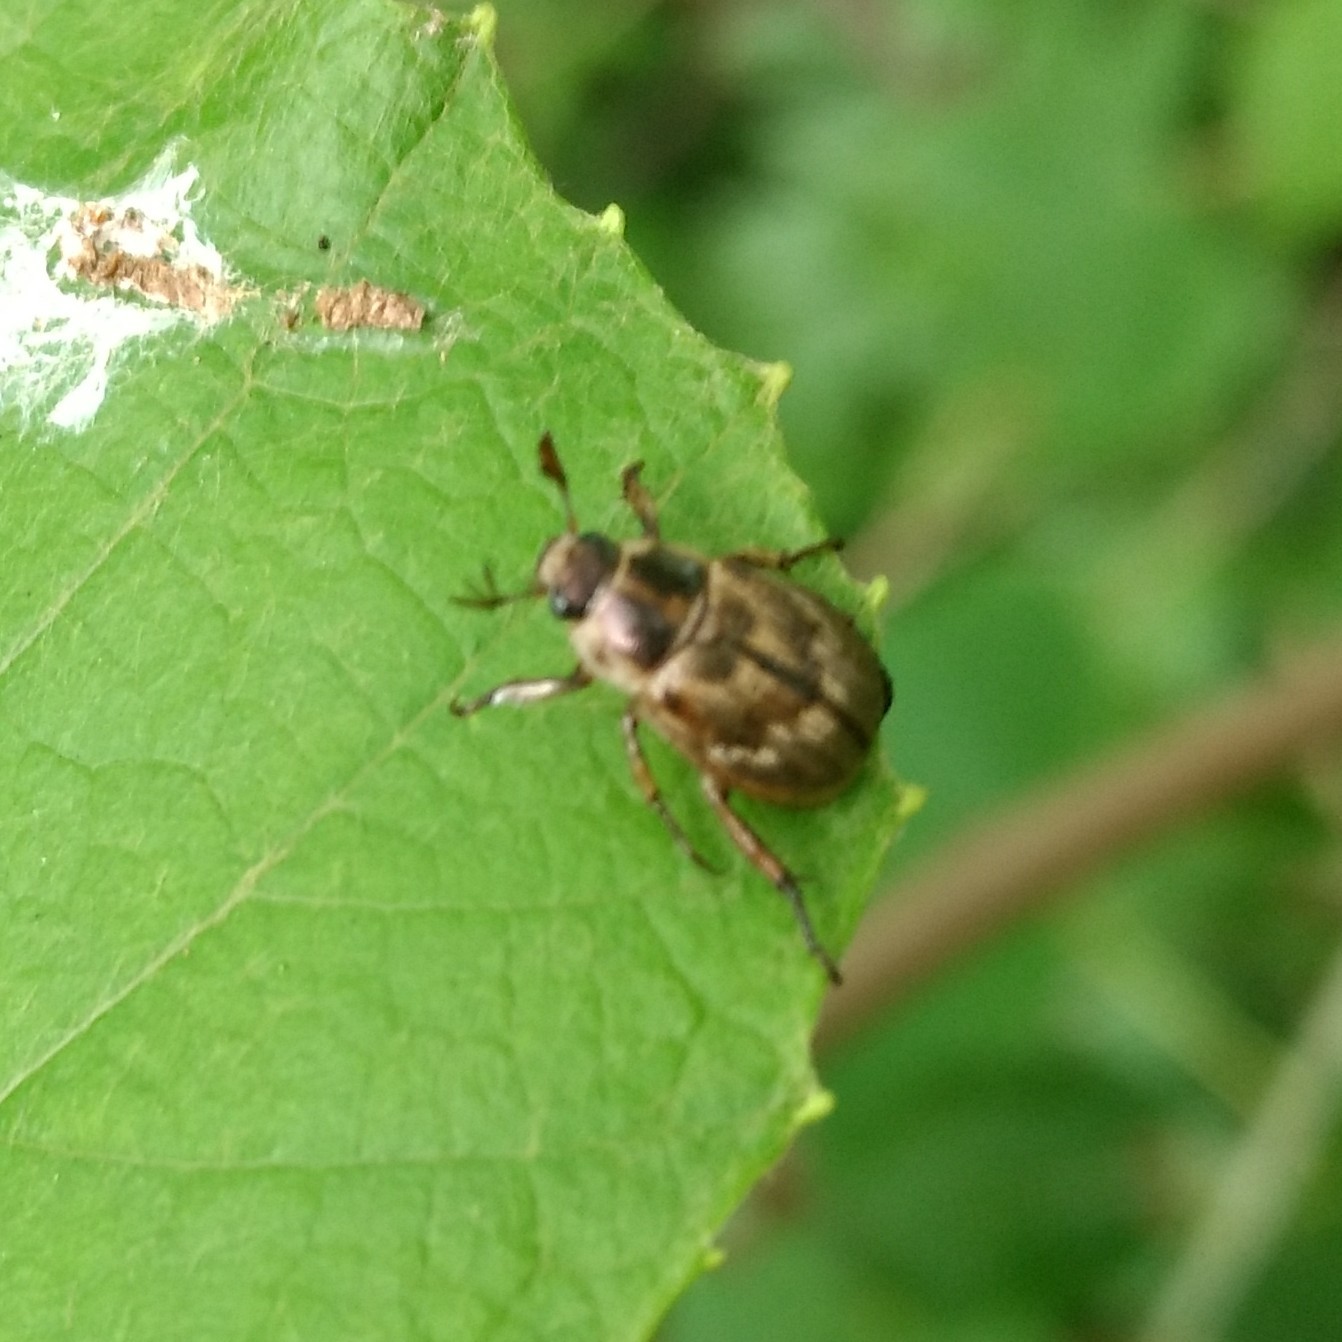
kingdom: Animalia
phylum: Arthropoda
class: Insecta
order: Coleoptera
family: Scarabaeidae
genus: Exomala
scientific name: Exomala orientalis
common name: Oriental beetle
